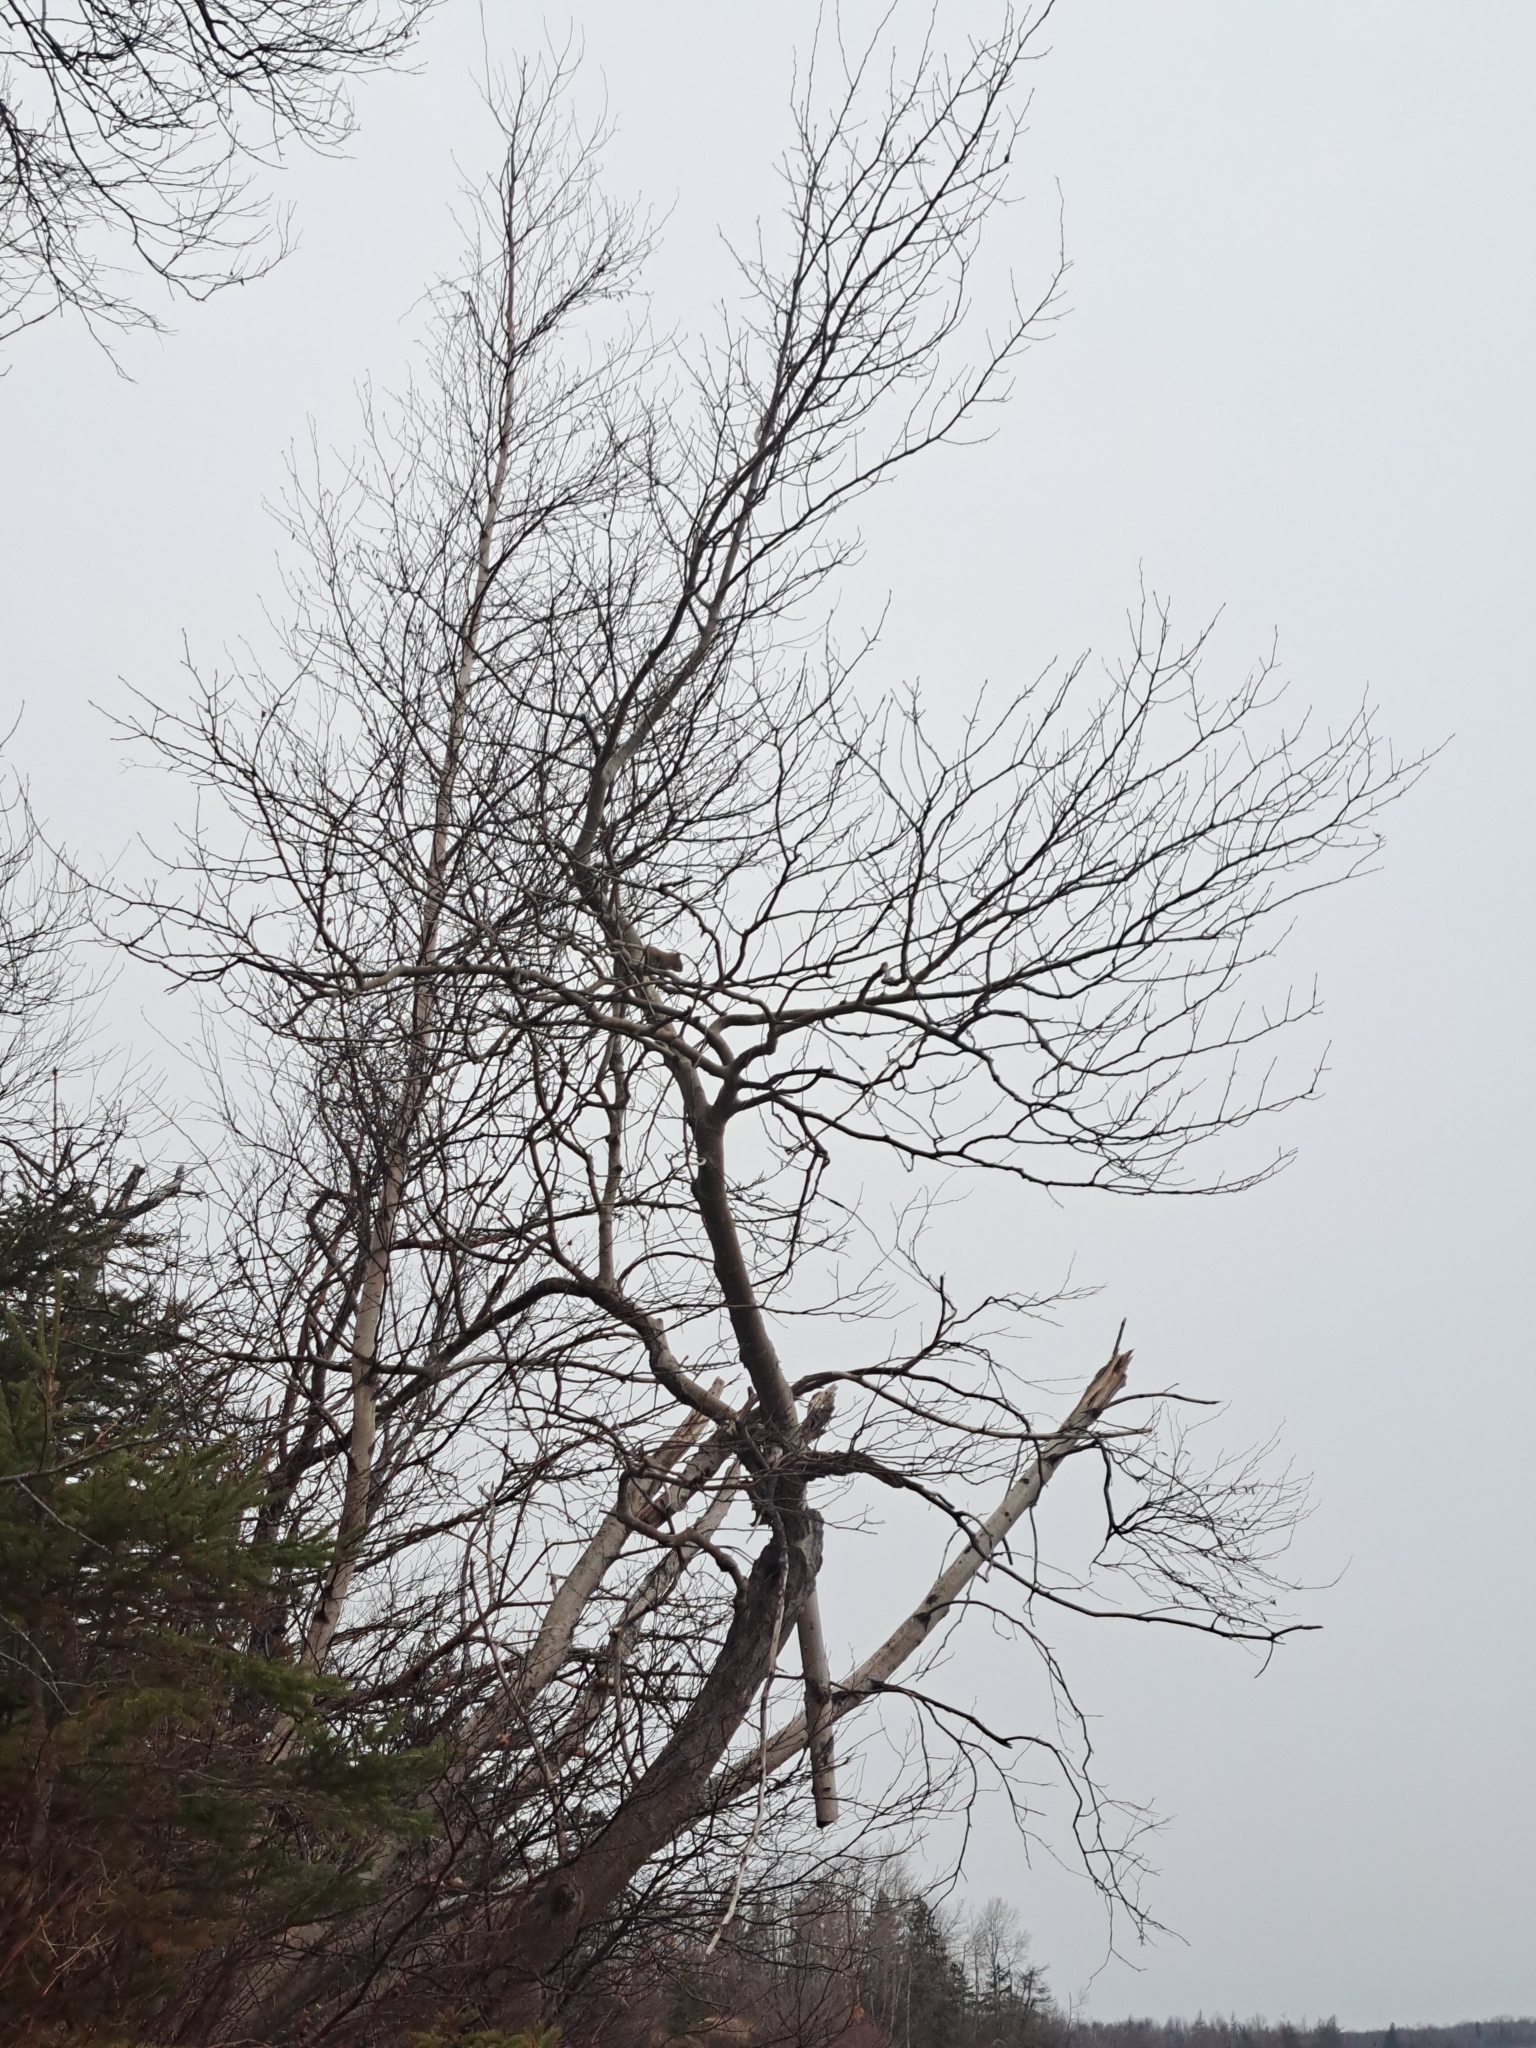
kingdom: Animalia
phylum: Chordata
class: Mammalia
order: Rodentia
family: Sciuridae
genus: Tamiasciurus
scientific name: Tamiasciurus hudsonicus
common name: Red squirrel
